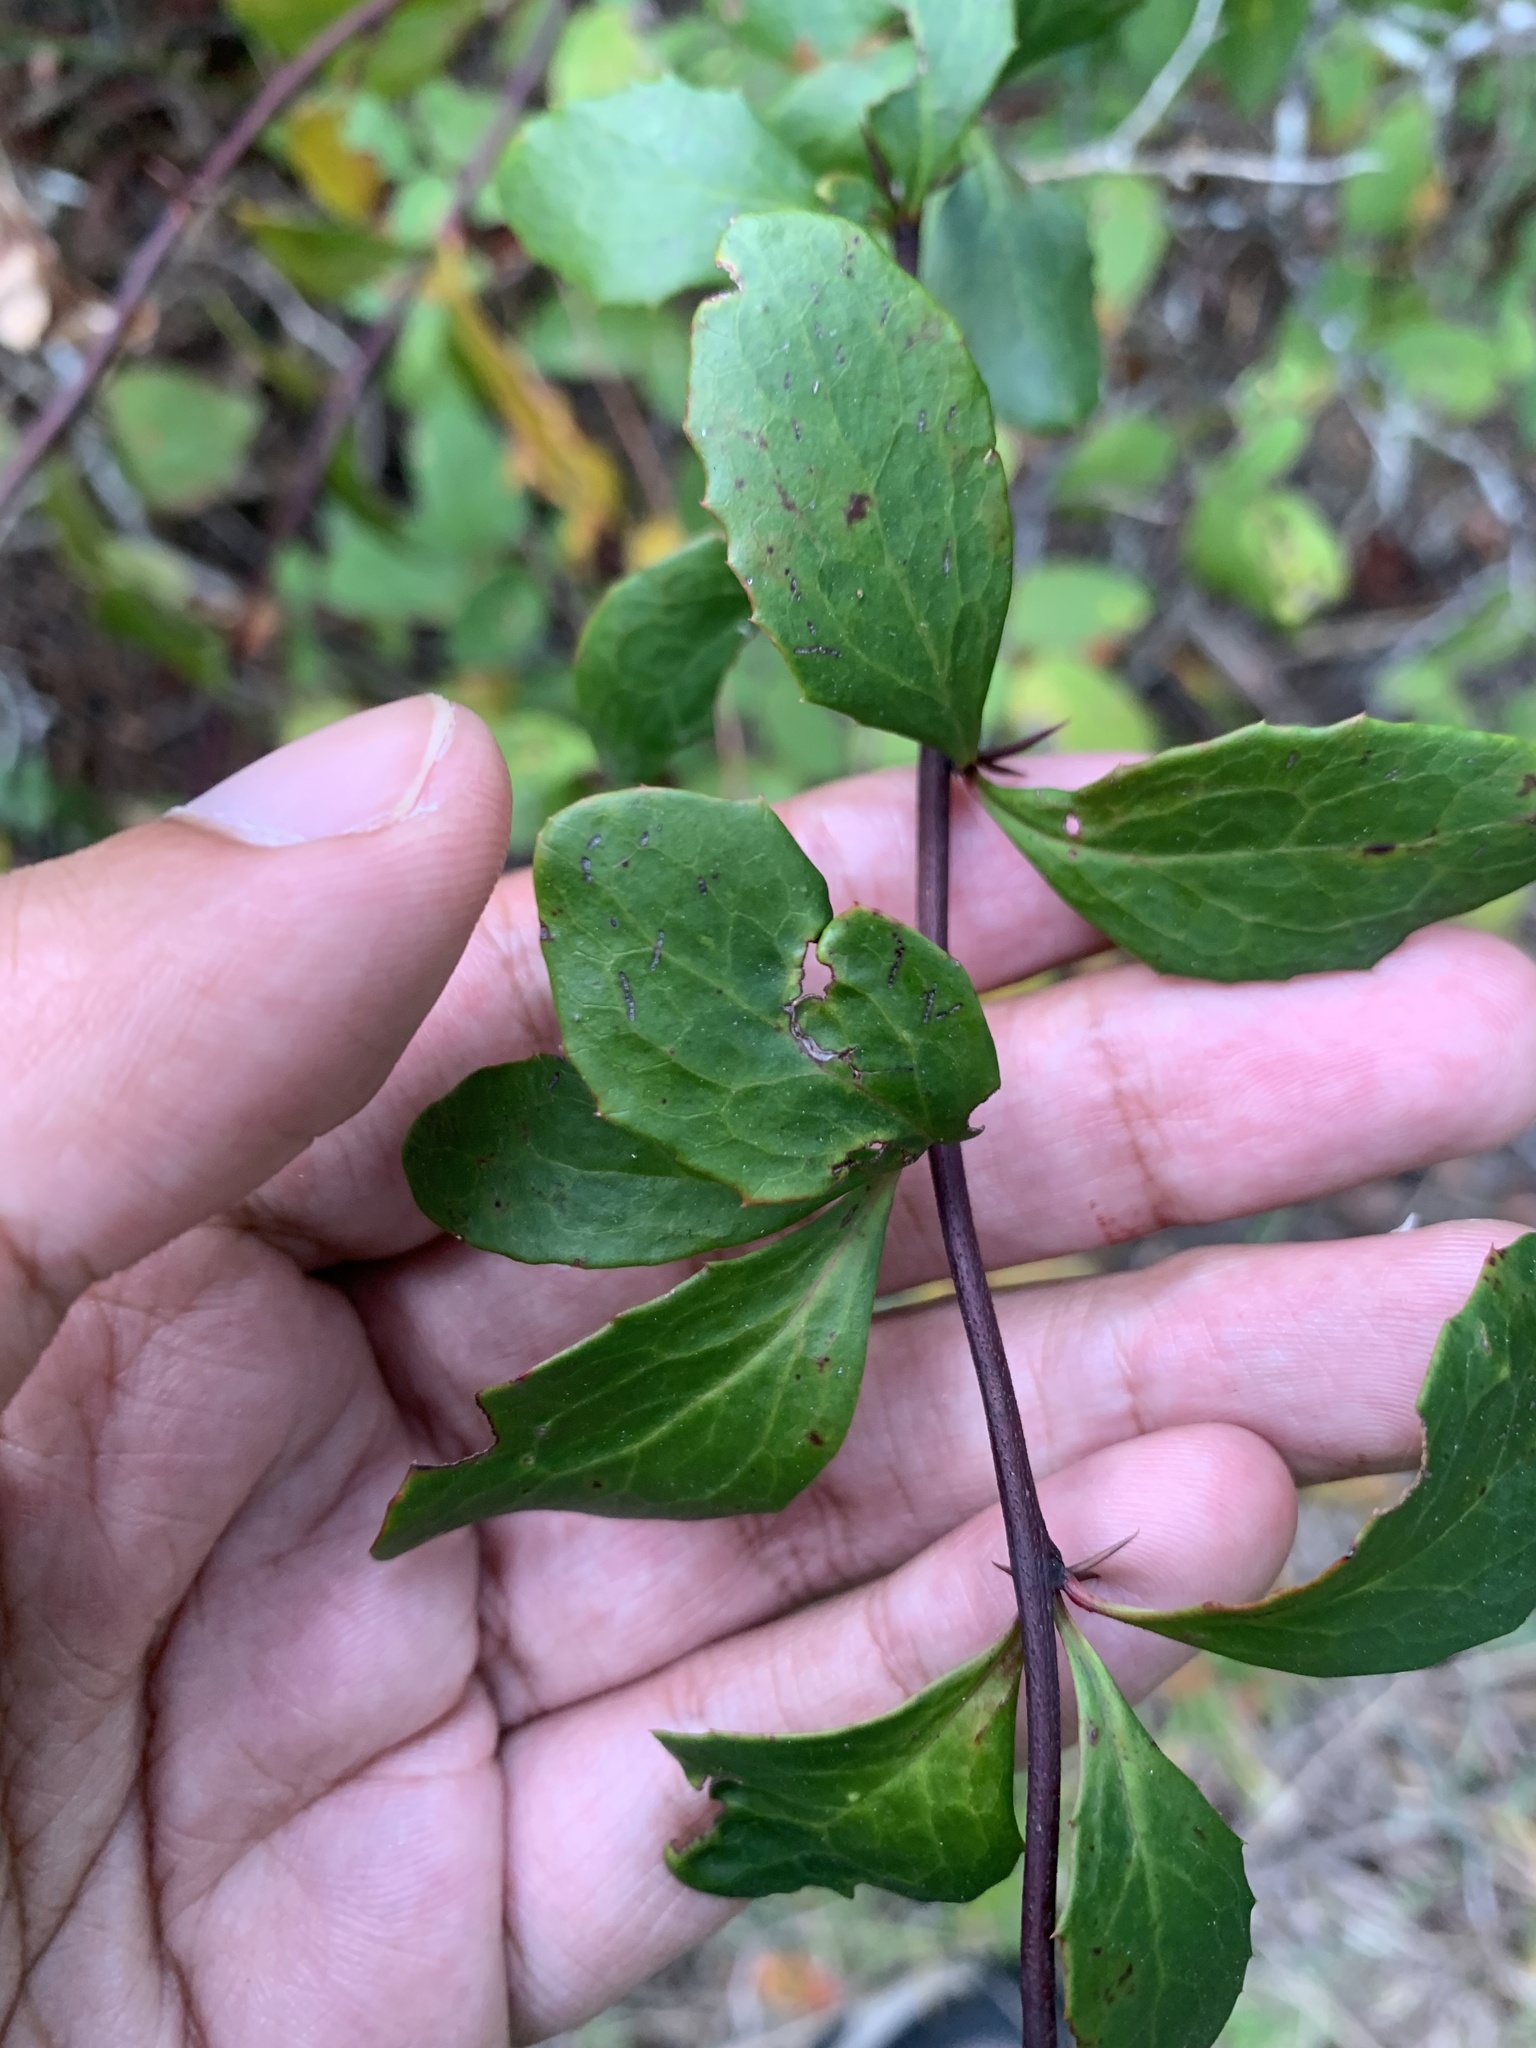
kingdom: Plantae
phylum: Tracheophyta
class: Magnoliopsida
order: Ranunculales
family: Berberidaceae
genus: Berberis
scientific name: Berberis canadensis
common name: American barberry
